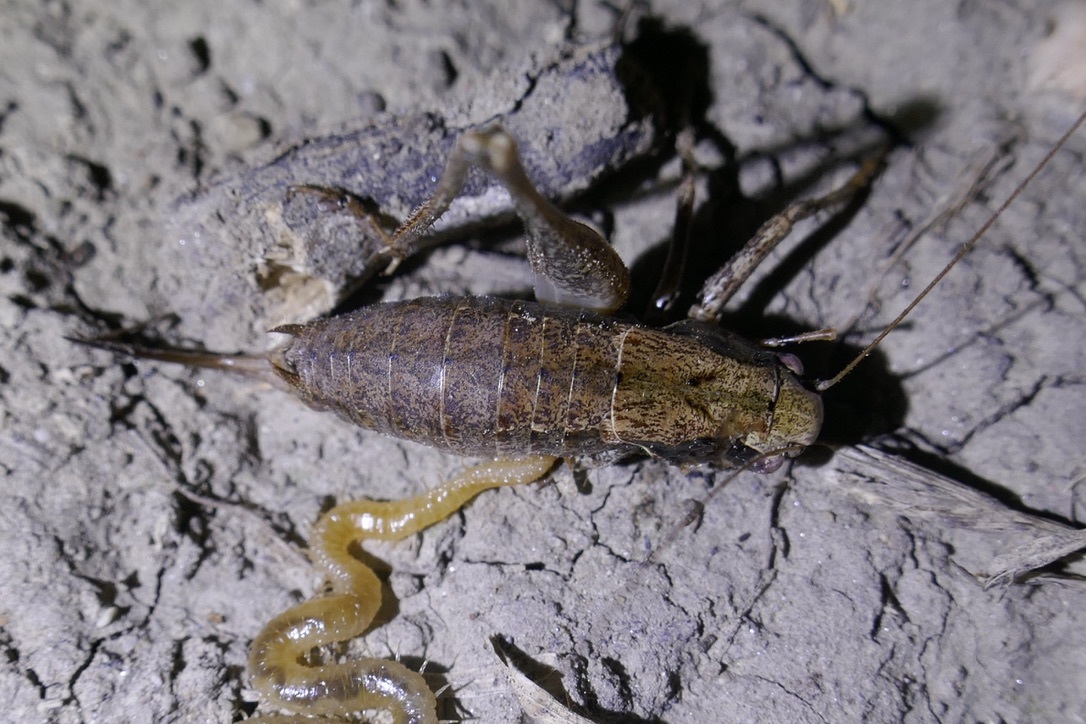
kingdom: Animalia
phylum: Arthropoda
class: Insecta
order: Orthoptera
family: Tettigoniidae
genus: Pholidoptera
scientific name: Pholidoptera griseoaptera
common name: Dark bush-cricket
